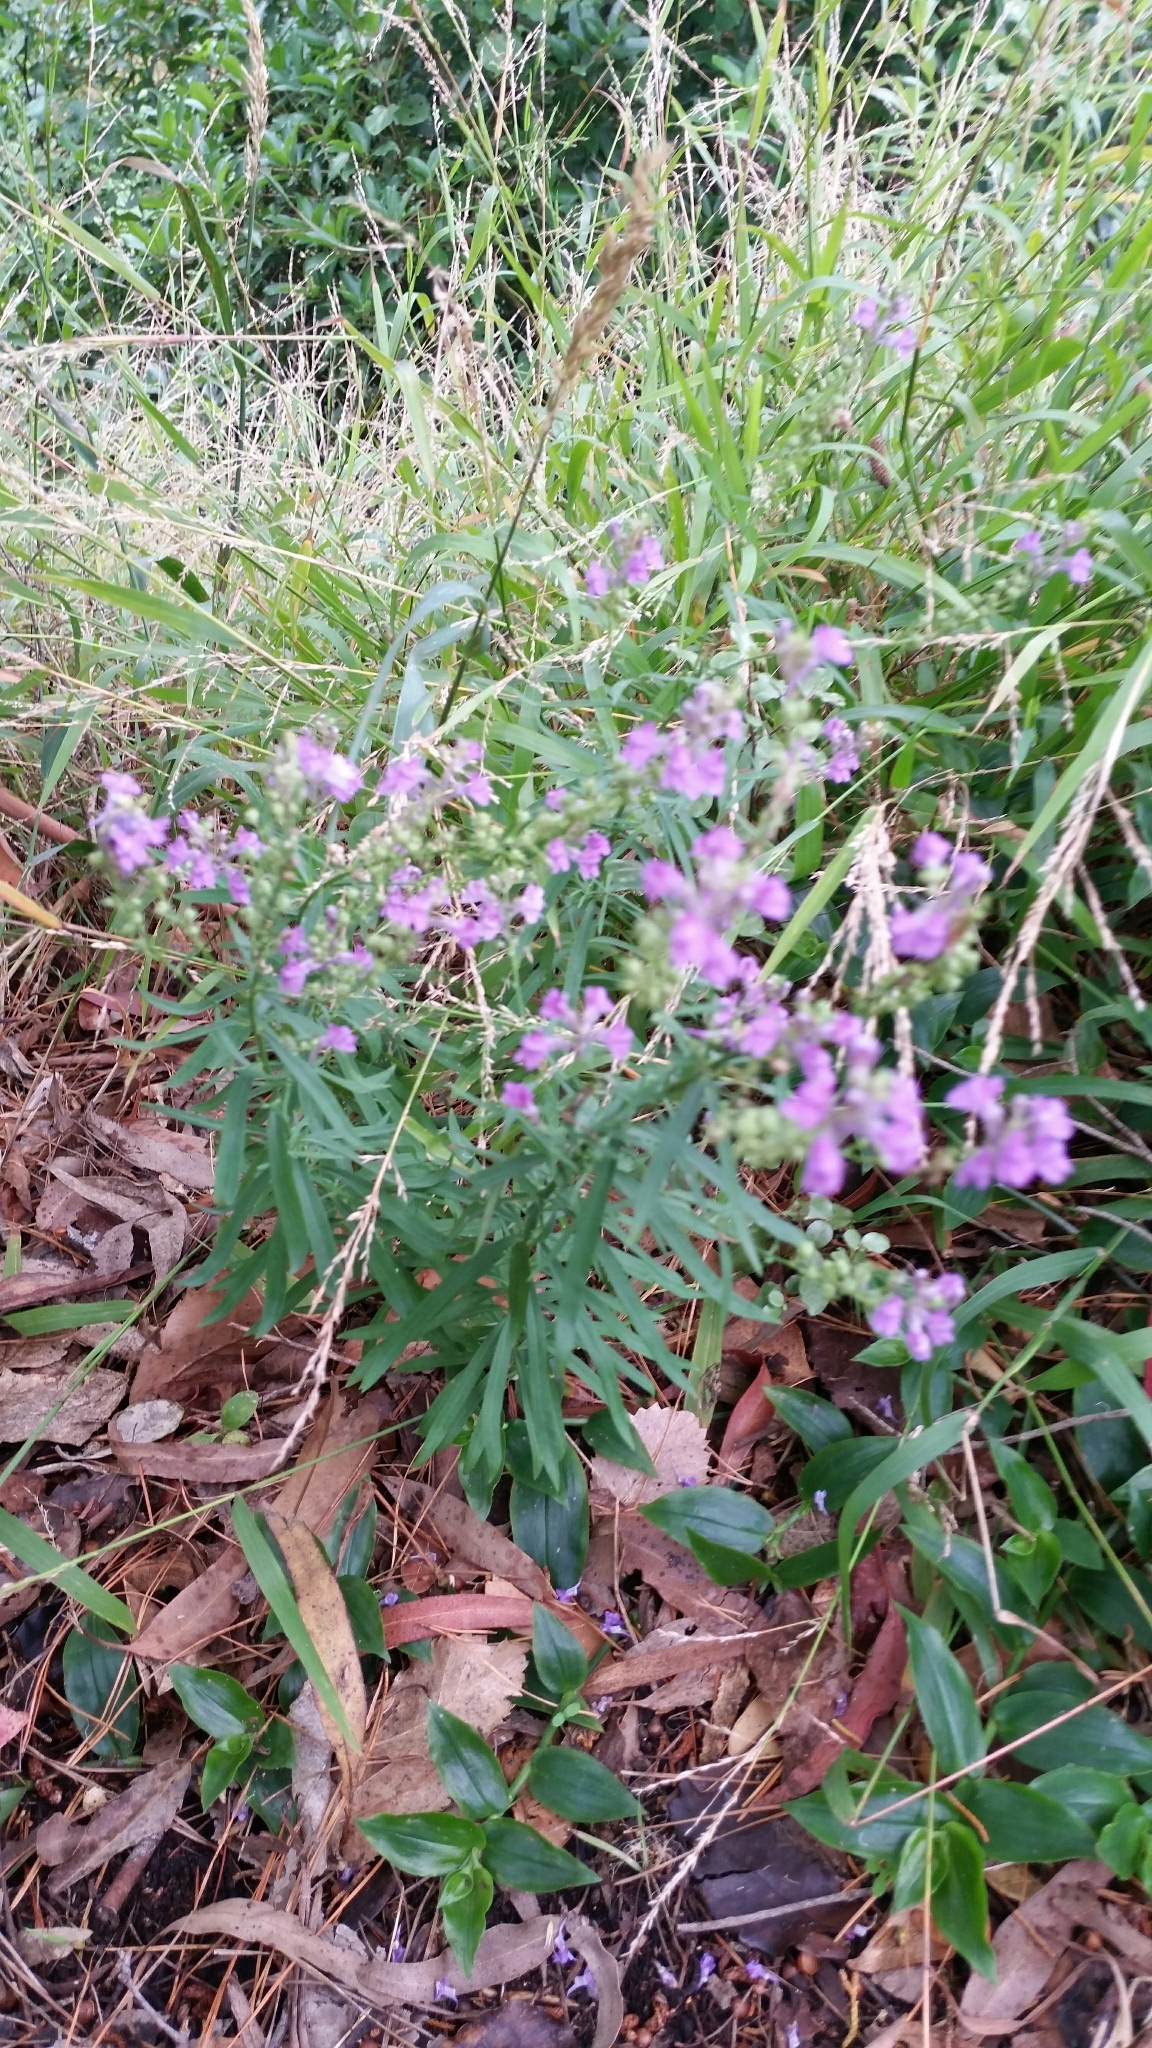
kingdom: Plantae
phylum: Tracheophyta
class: Magnoliopsida
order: Lamiales
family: Plantaginaceae
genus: Linaria
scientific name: Linaria purpurea
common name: Purple toadflax
